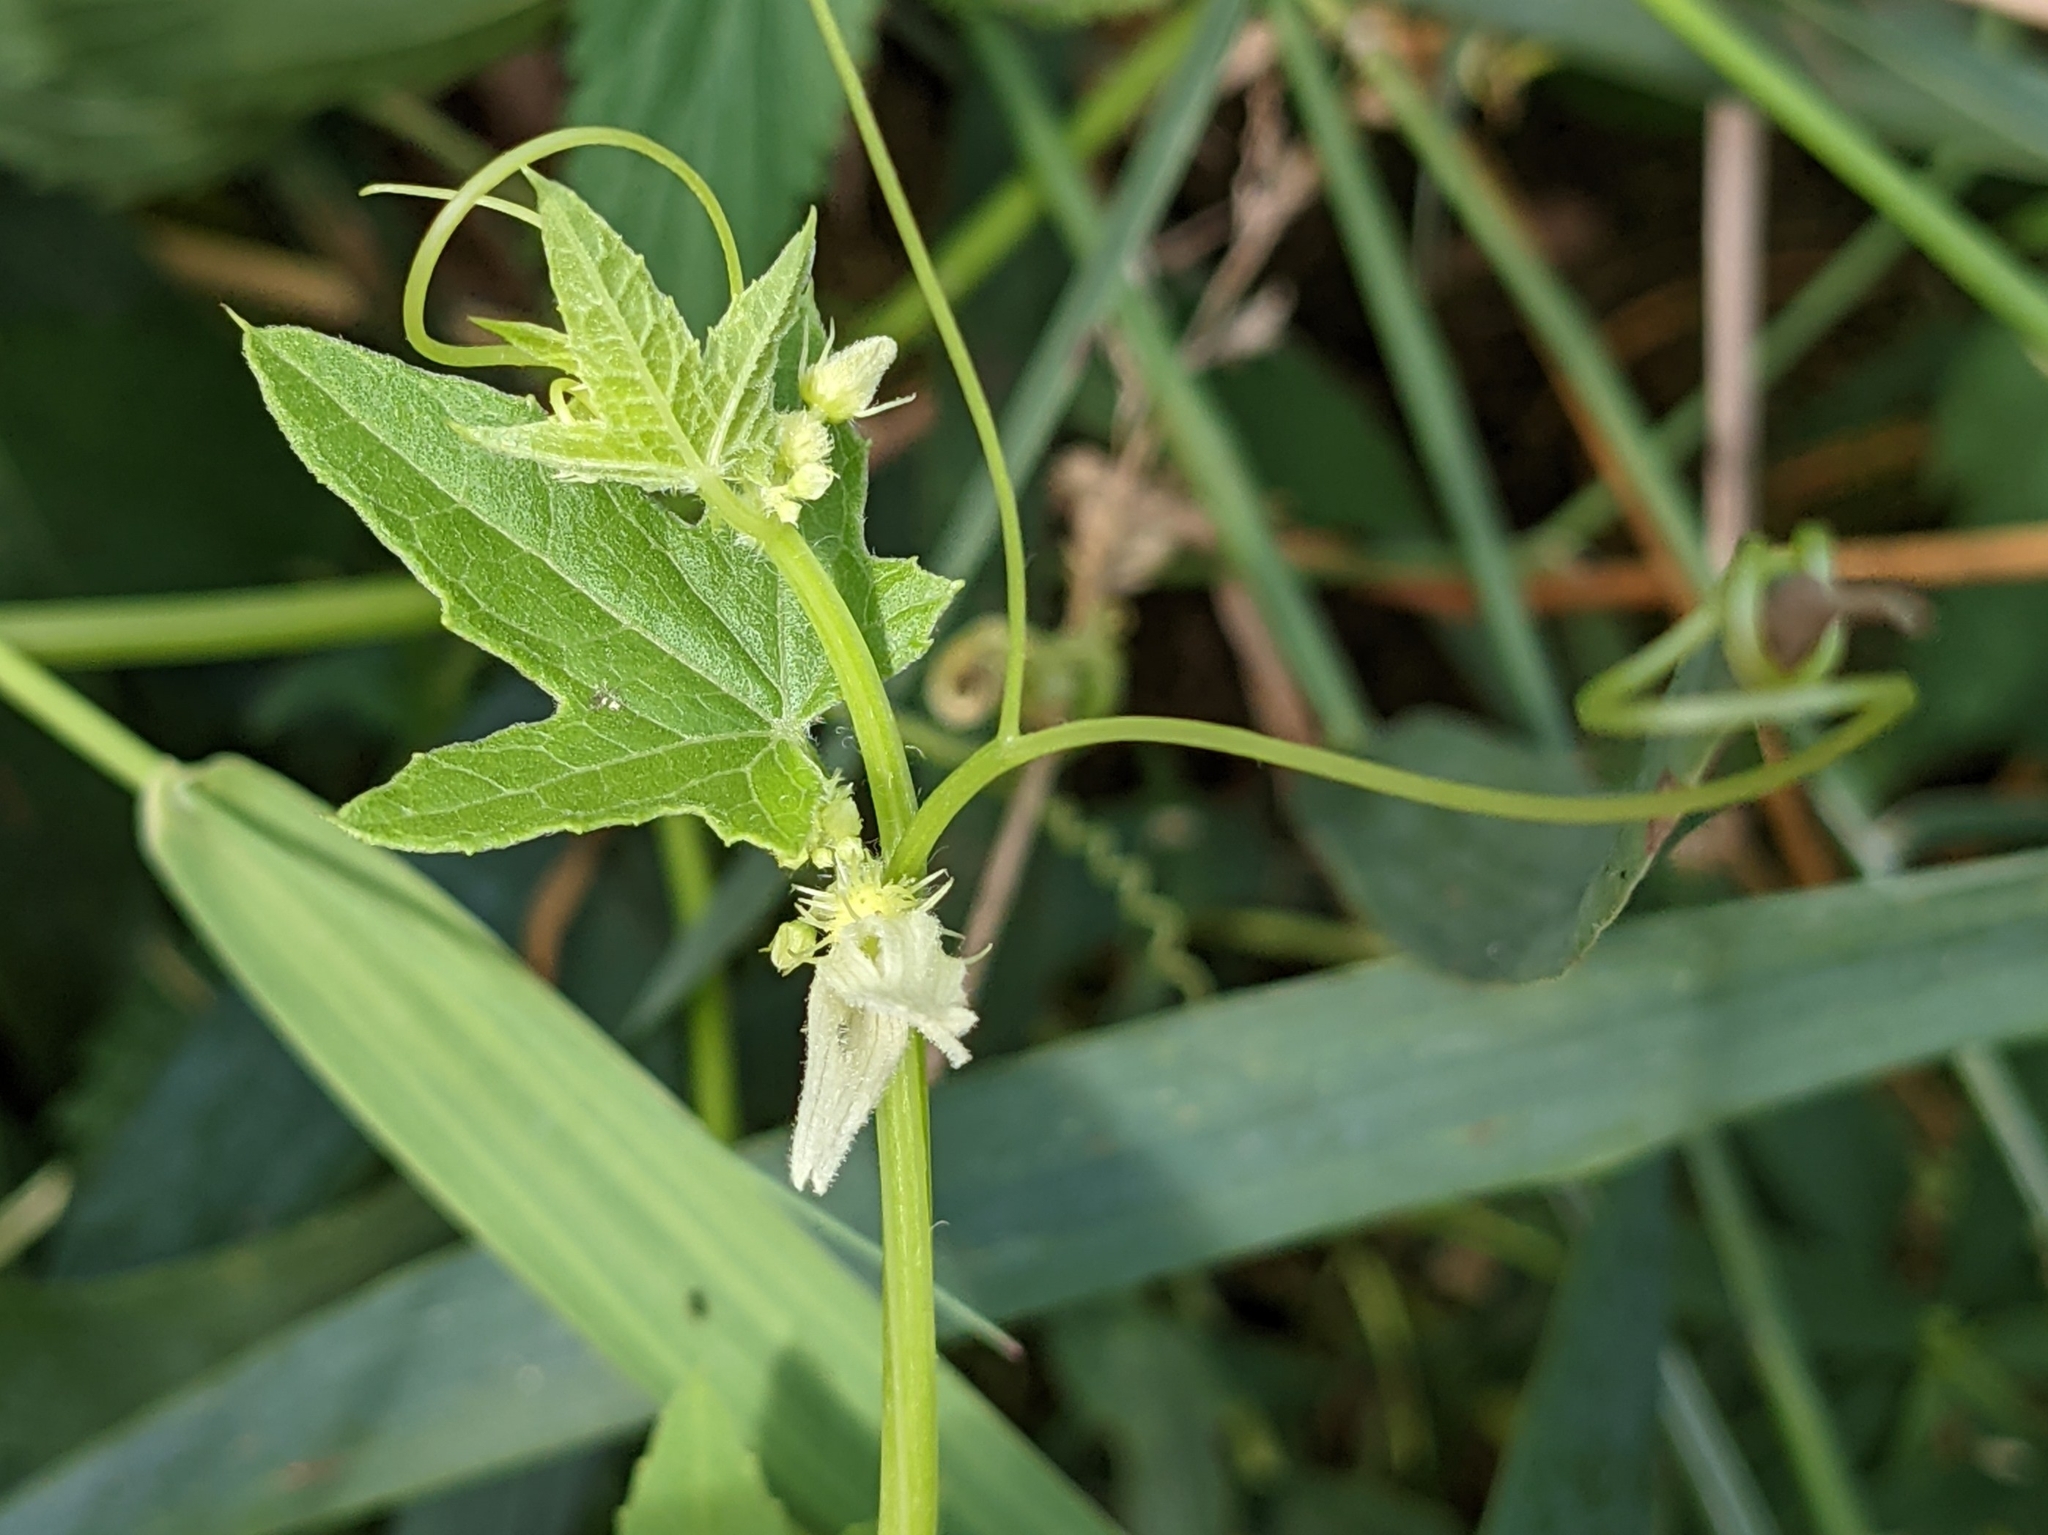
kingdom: Plantae
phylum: Tracheophyta
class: Magnoliopsida
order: Cucurbitales
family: Cucurbitaceae
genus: Echinocystis
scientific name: Echinocystis lobata
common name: Wild cucumber
